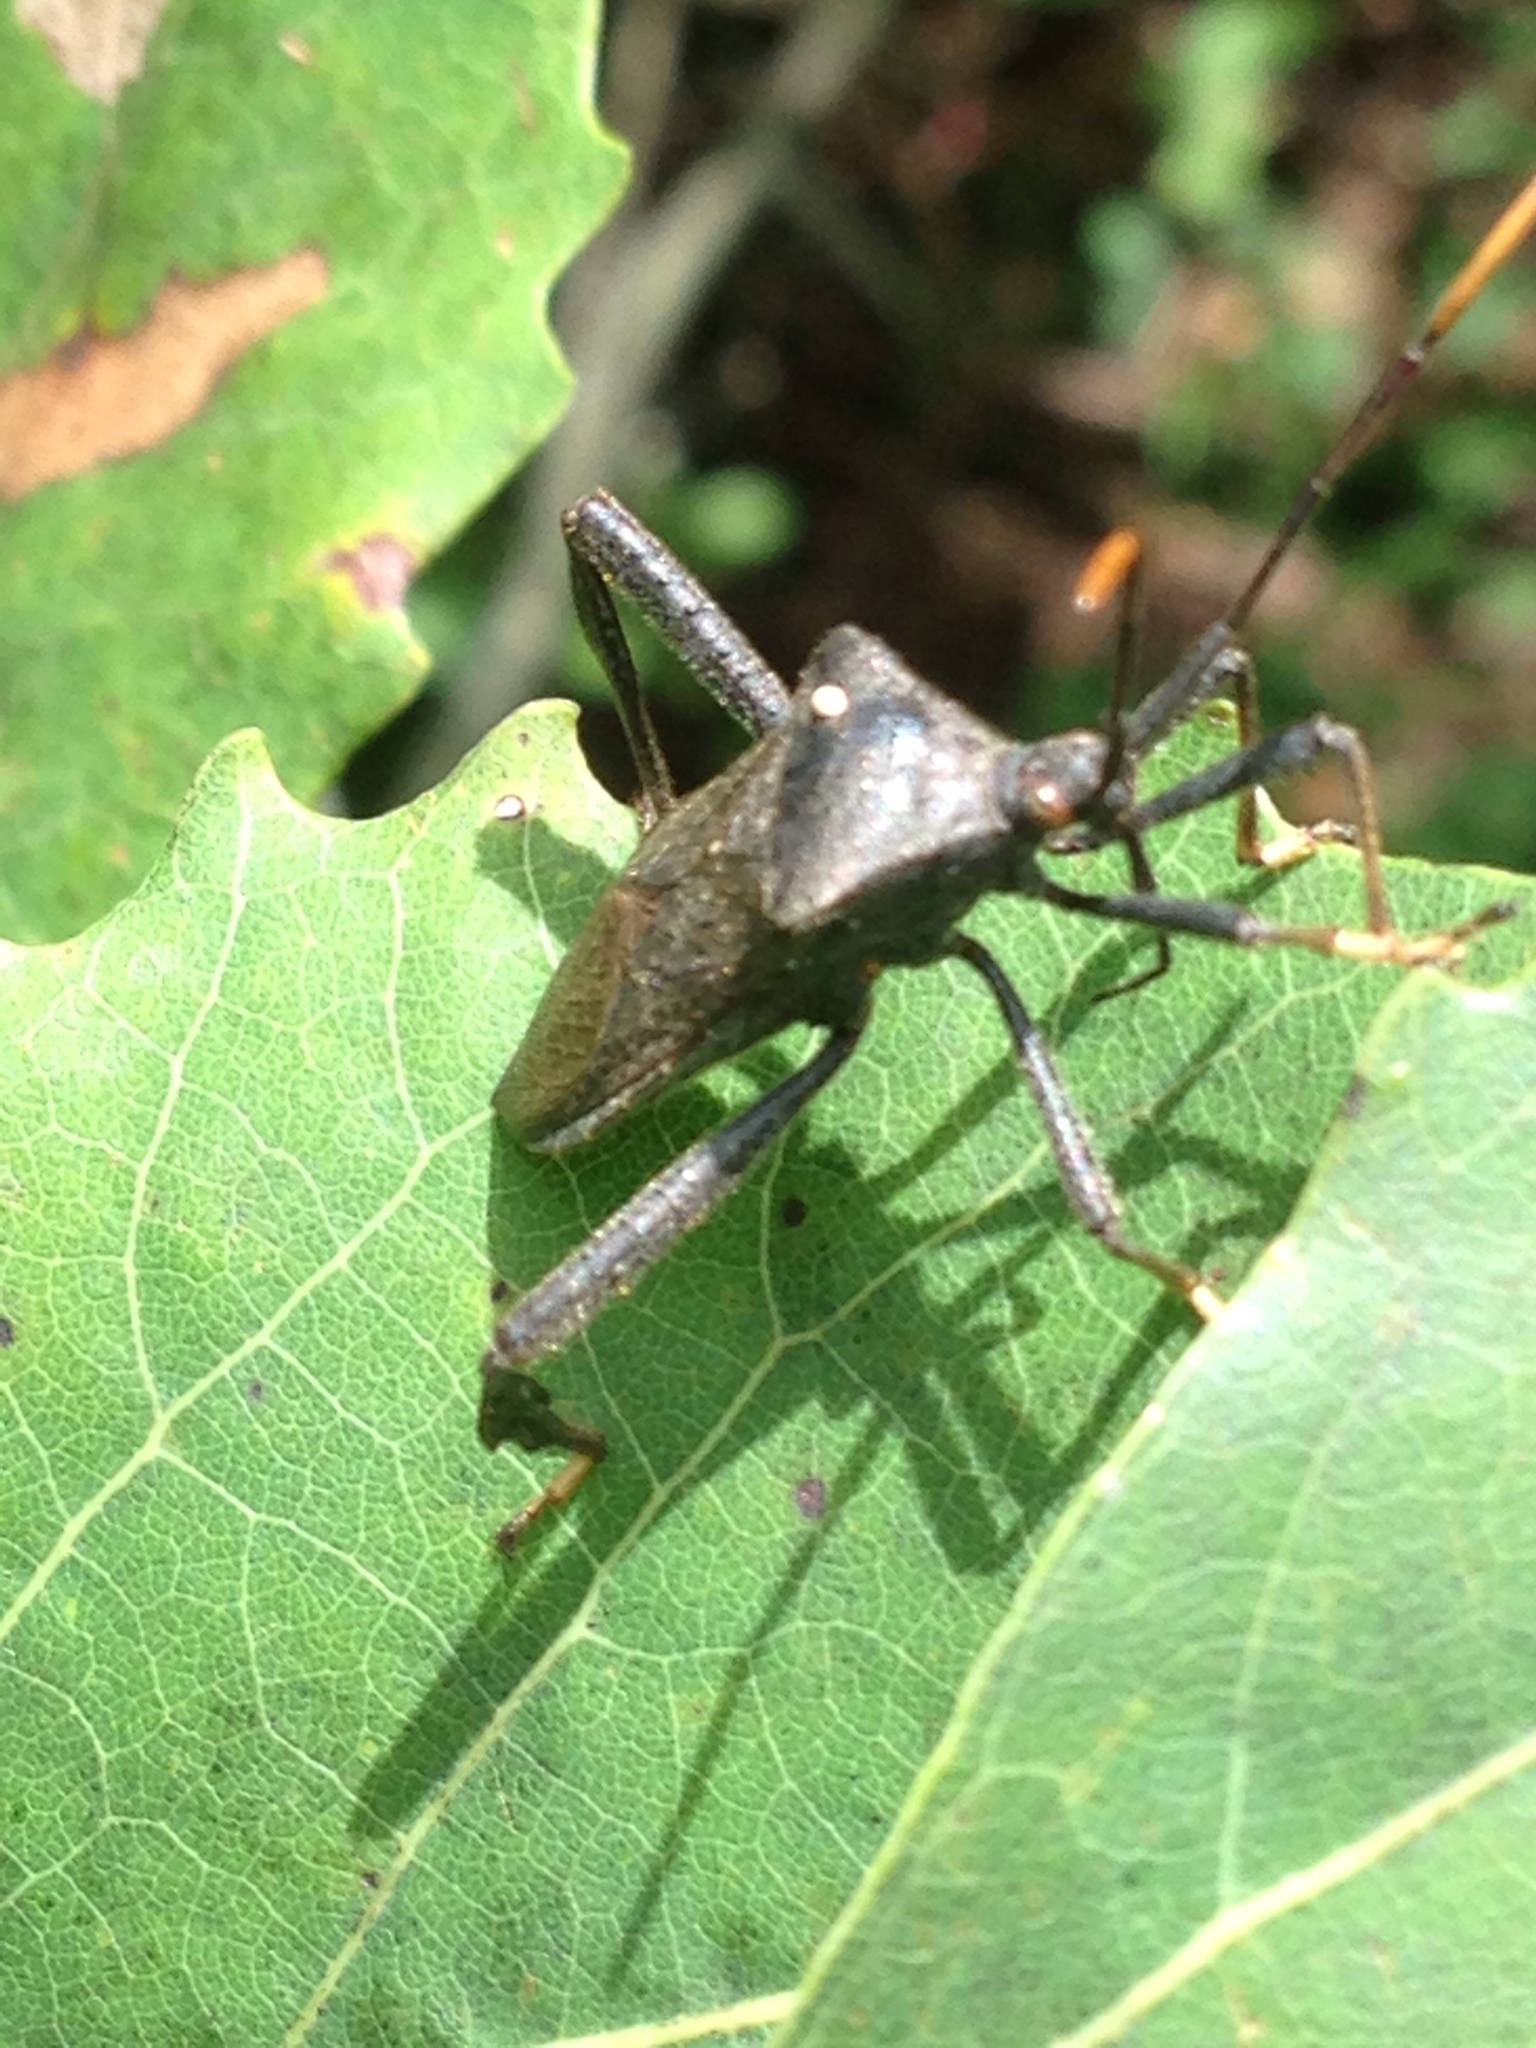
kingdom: Animalia
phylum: Arthropoda
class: Insecta
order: Hemiptera
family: Coreidae
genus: Acanthocephala
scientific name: Acanthocephala terminalis
